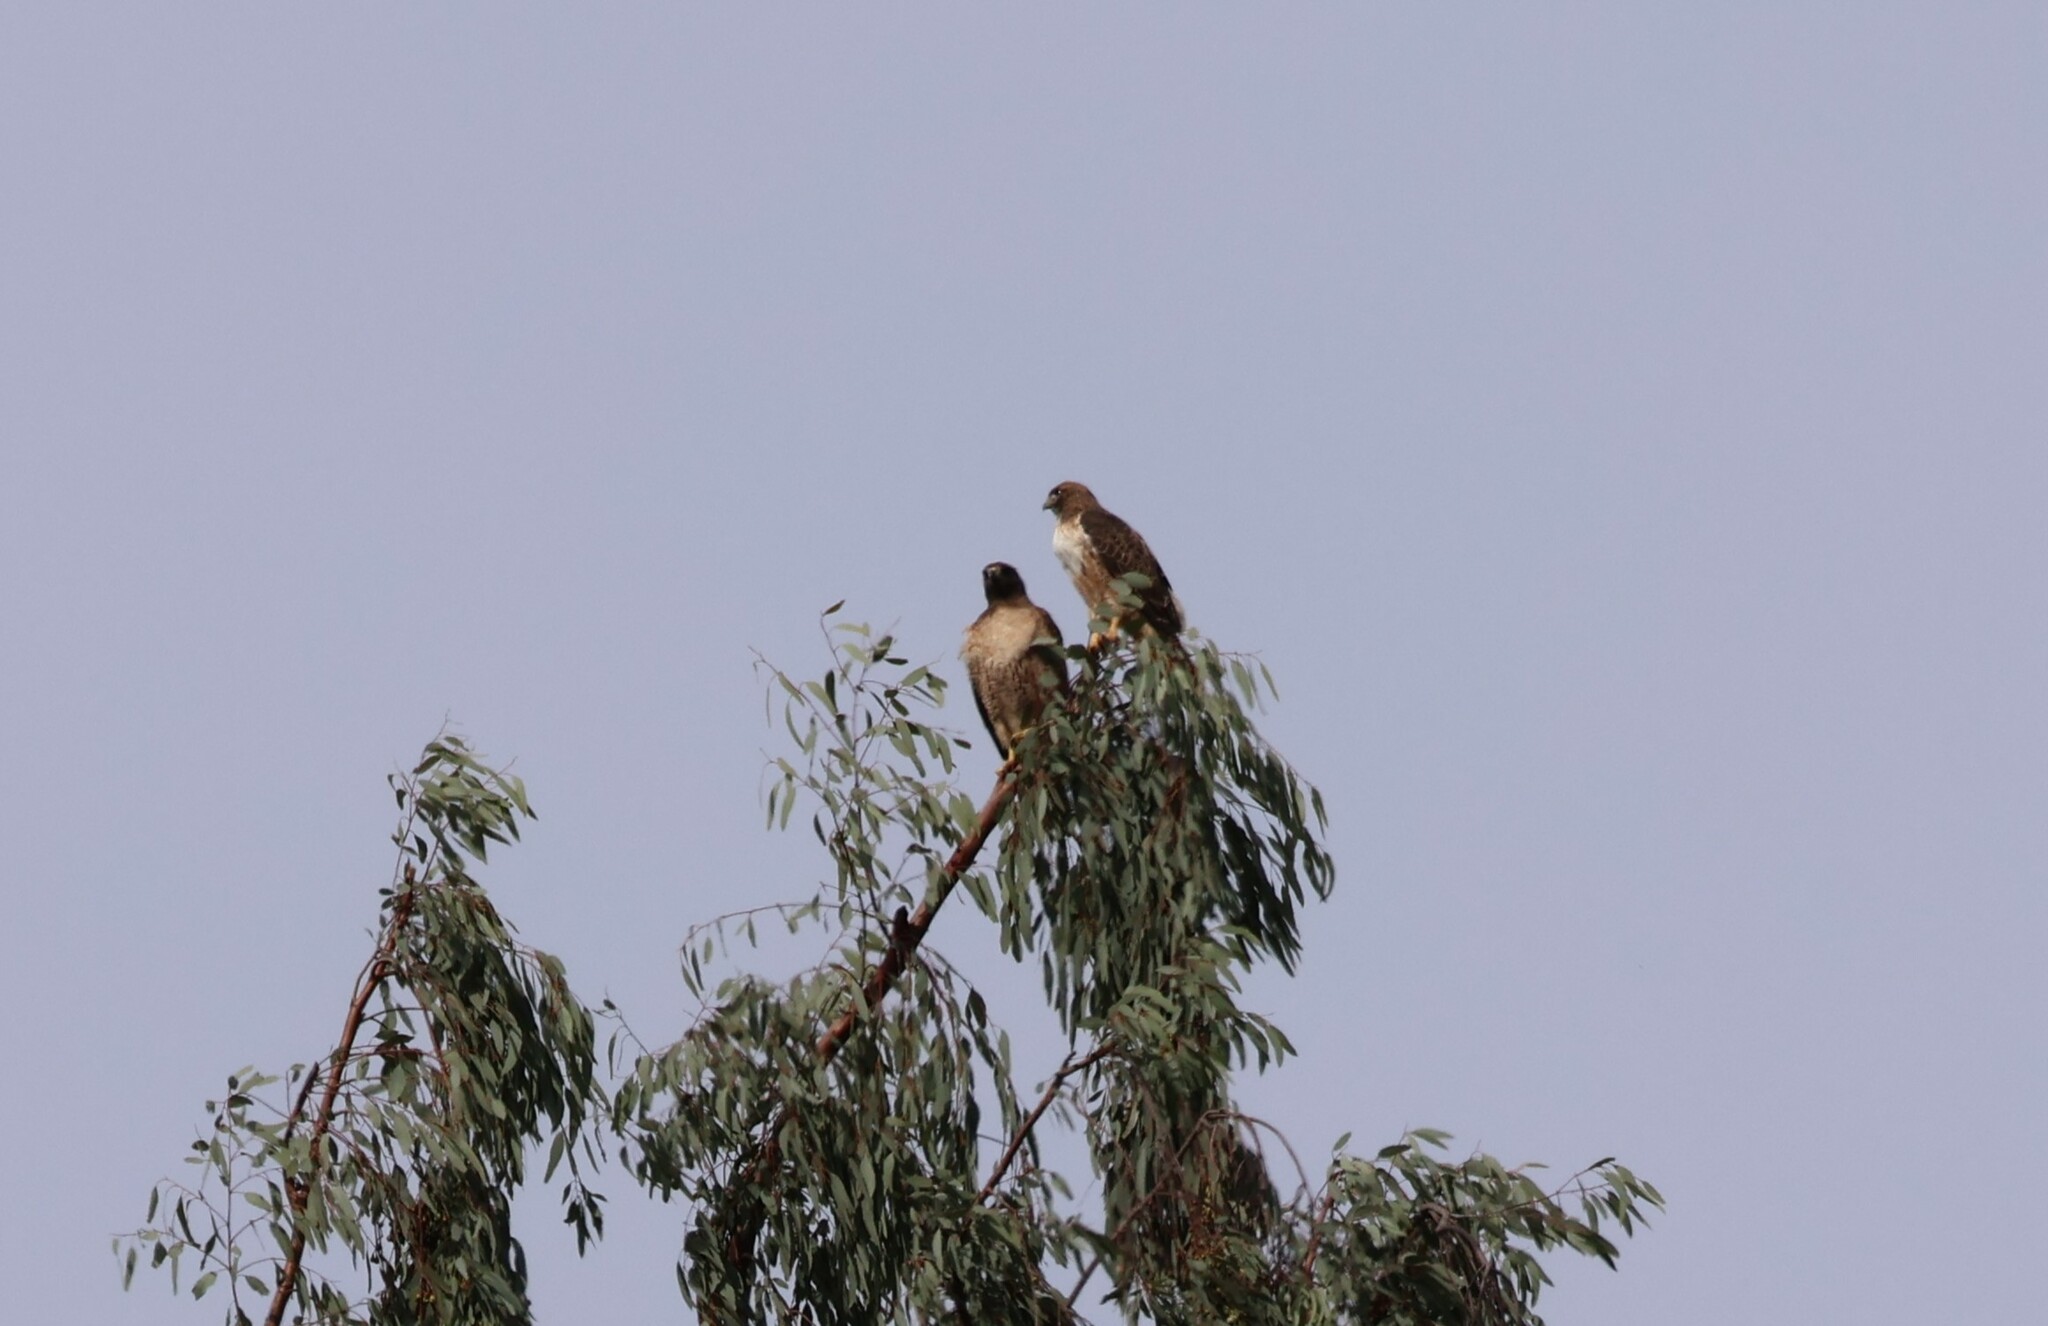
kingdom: Animalia
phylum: Chordata
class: Aves
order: Accipitriformes
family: Accipitridae
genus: Buteo
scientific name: Buteo jamaicensis
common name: Red-tailed hawk
